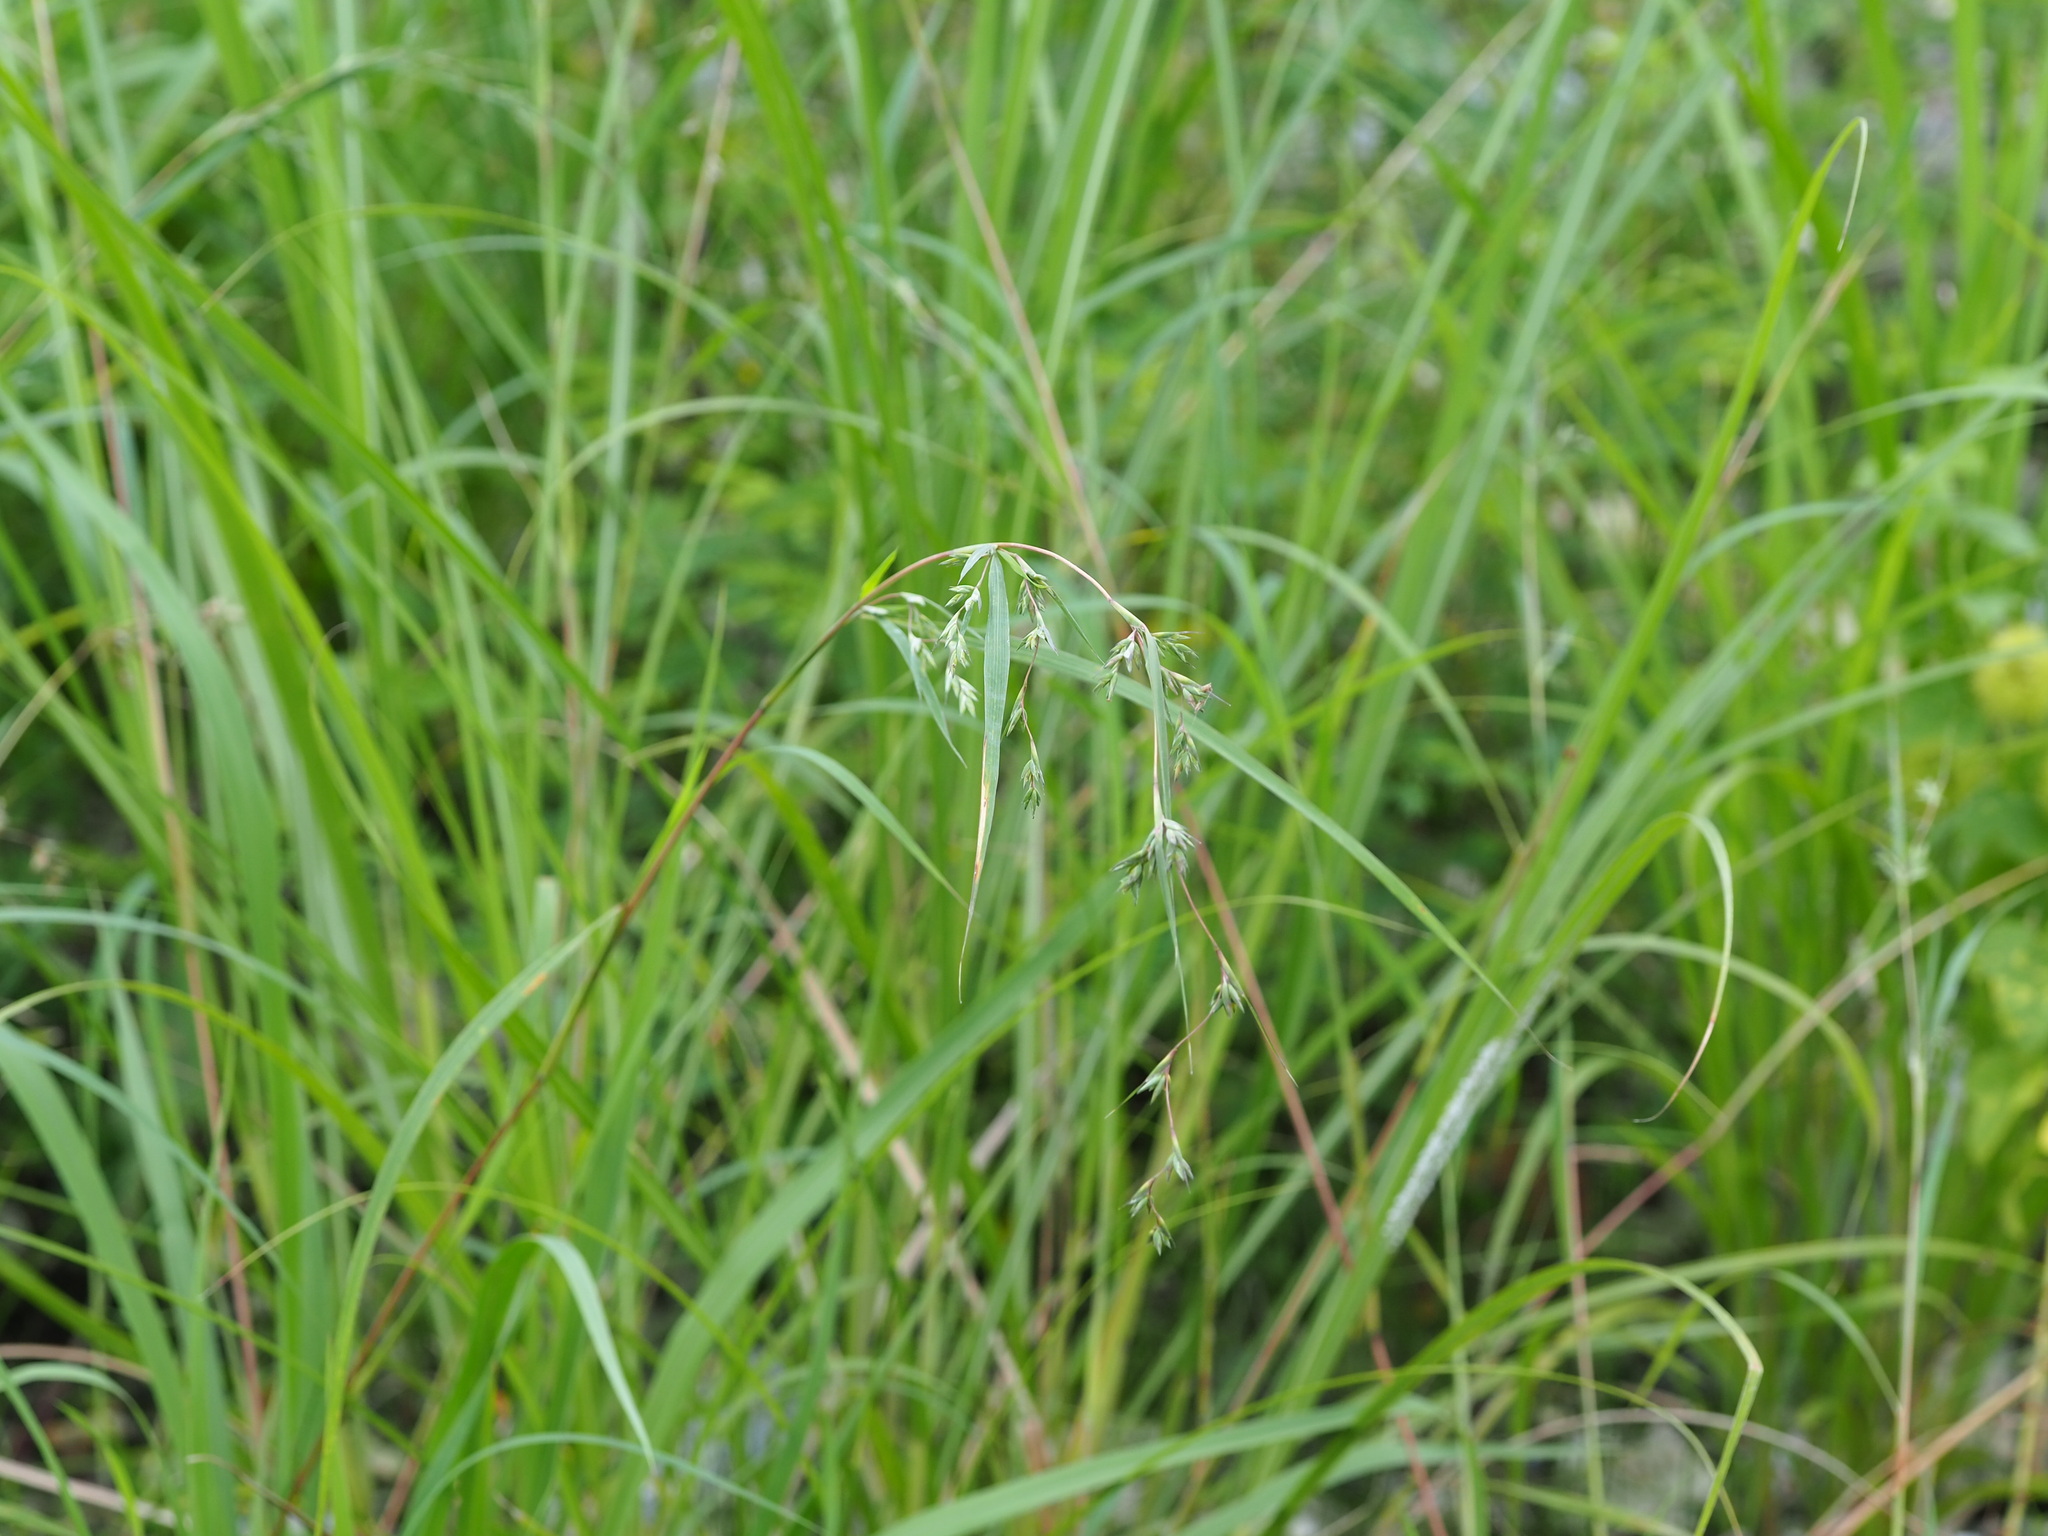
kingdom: Plantae
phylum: Tracheophyta
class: Liliopsida
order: Poales
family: Poaceae
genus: Apluda
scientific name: Apluda mutica
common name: Mauritian grass
